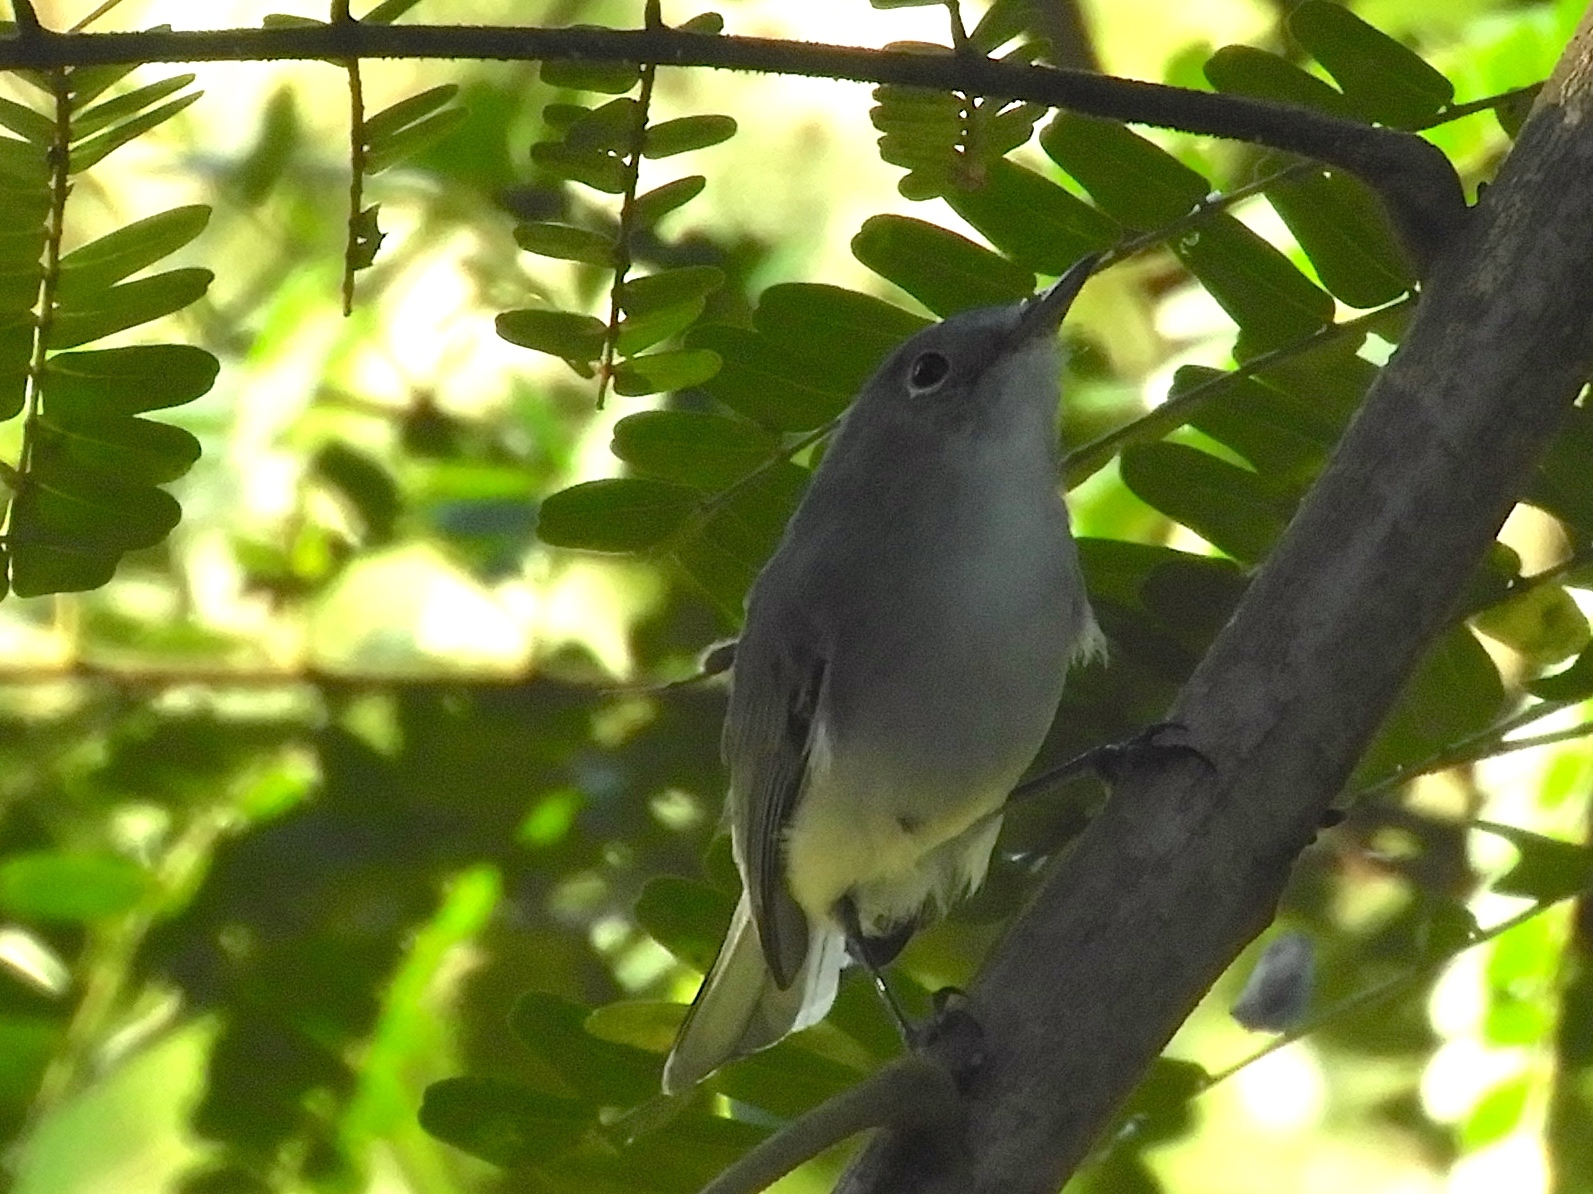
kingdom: Animalia
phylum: Chordata
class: Aves
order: Passeriformes
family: Polioptilidae
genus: Polioptila
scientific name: Polioptila caerulea
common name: Blue-gray gnatcatcher
